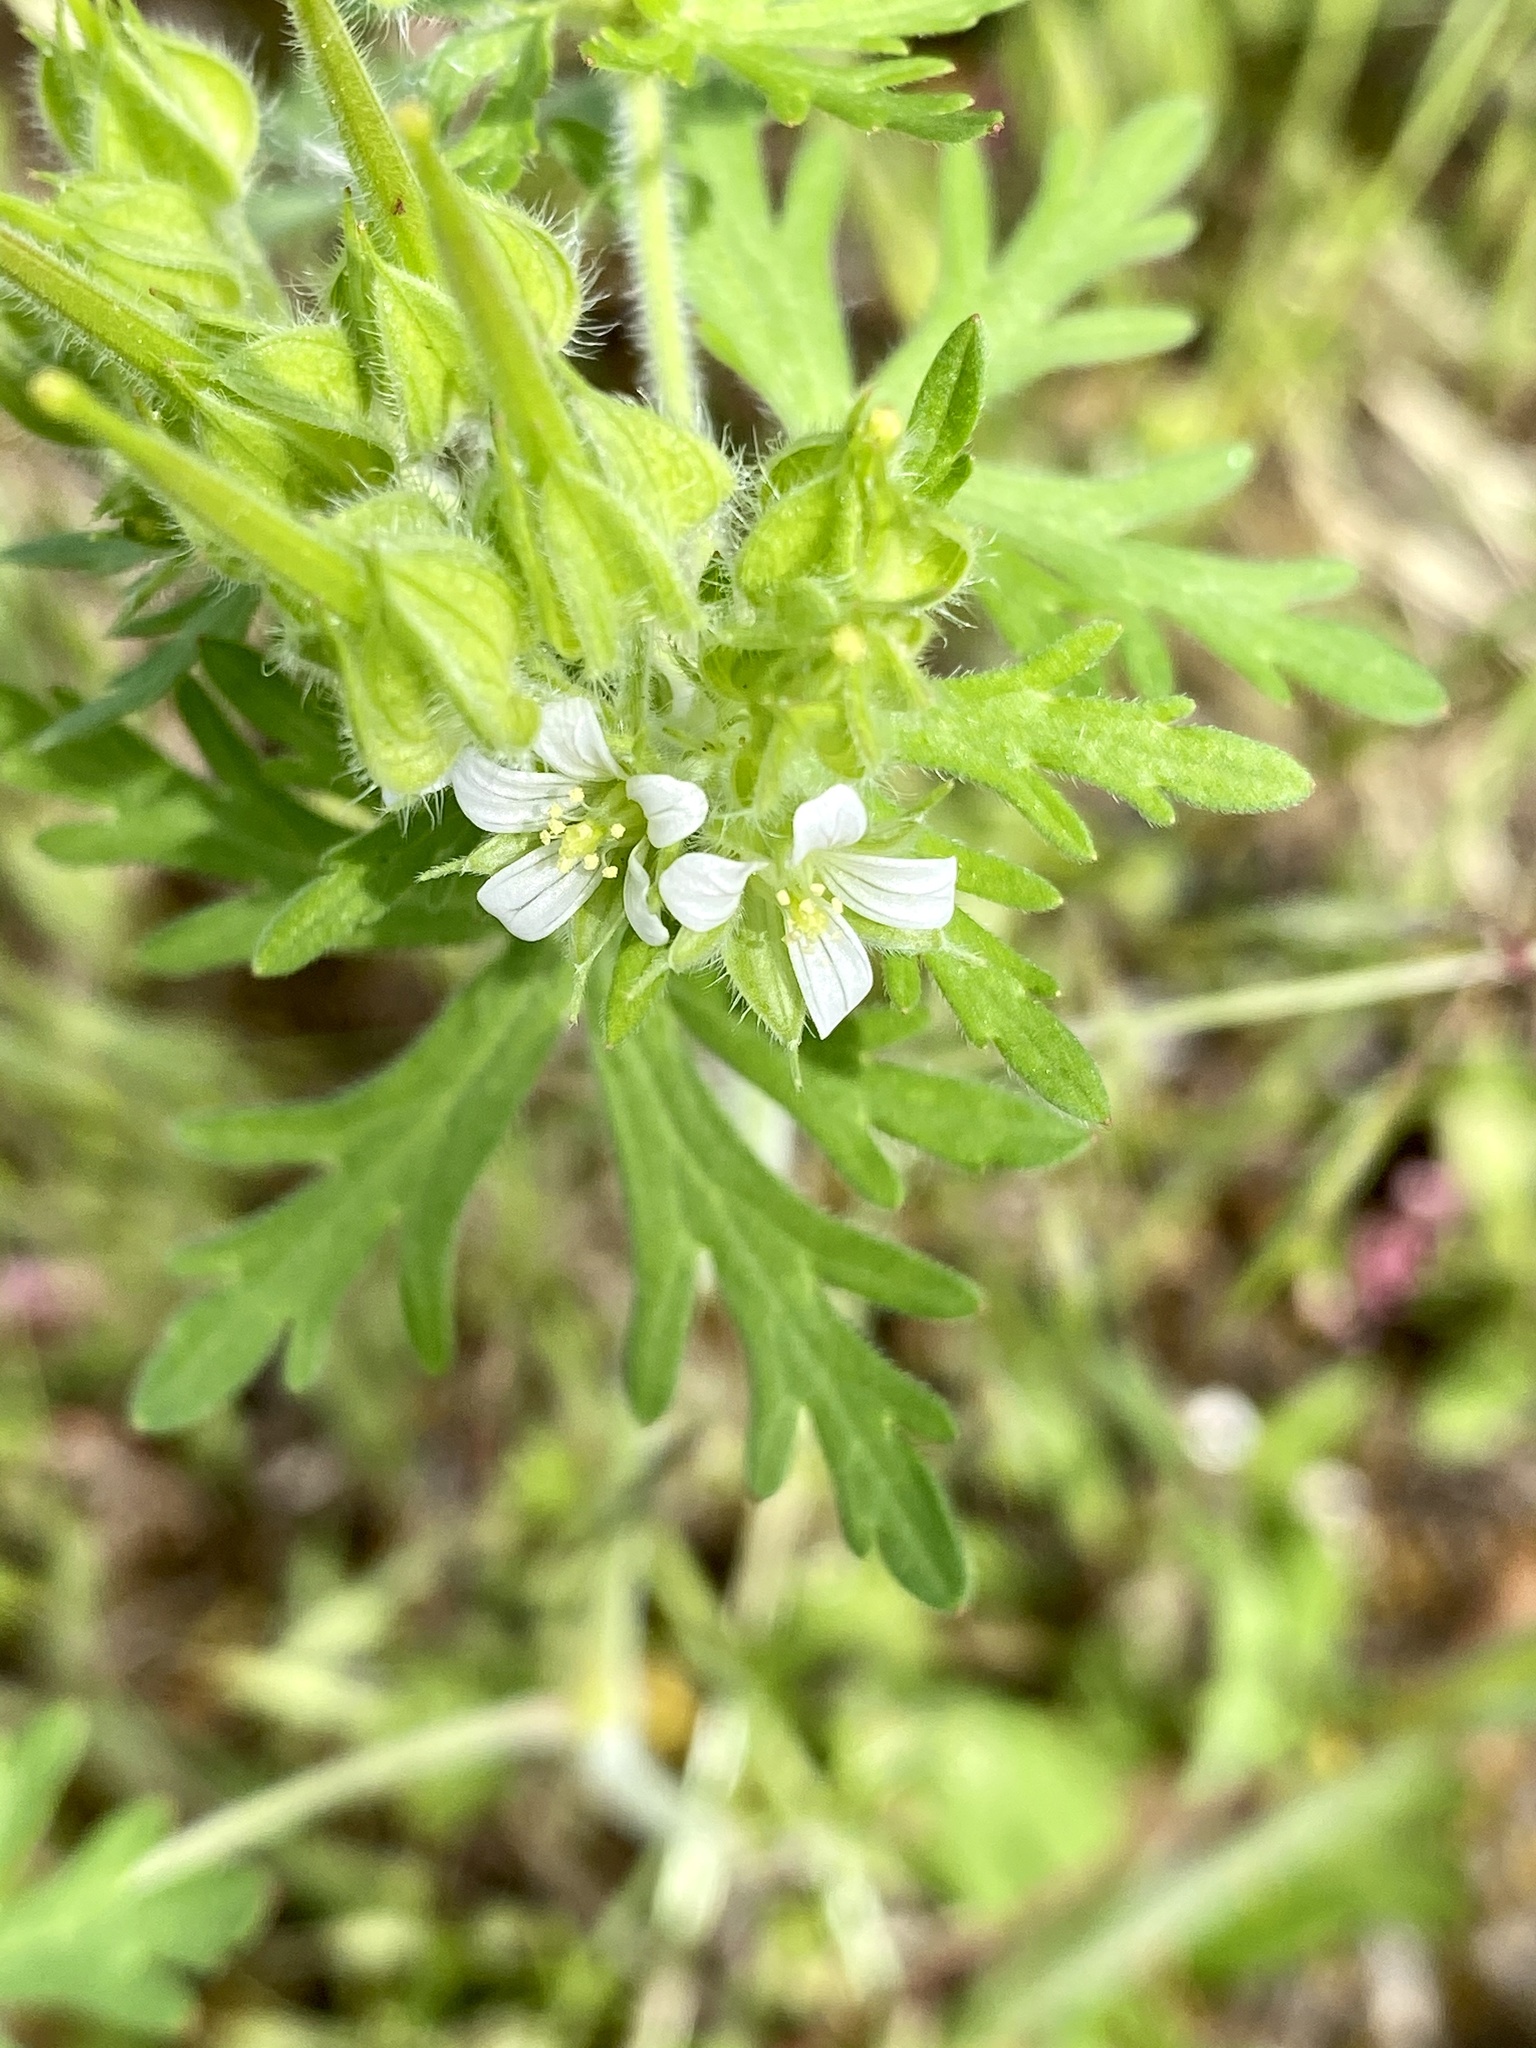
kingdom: Plantae
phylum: Tracheophyta
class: Magnoliopsida
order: Geraniales
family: Geraniaceae
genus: Geranium
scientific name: Geranium carolinianum
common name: Carolina crane's-bill
